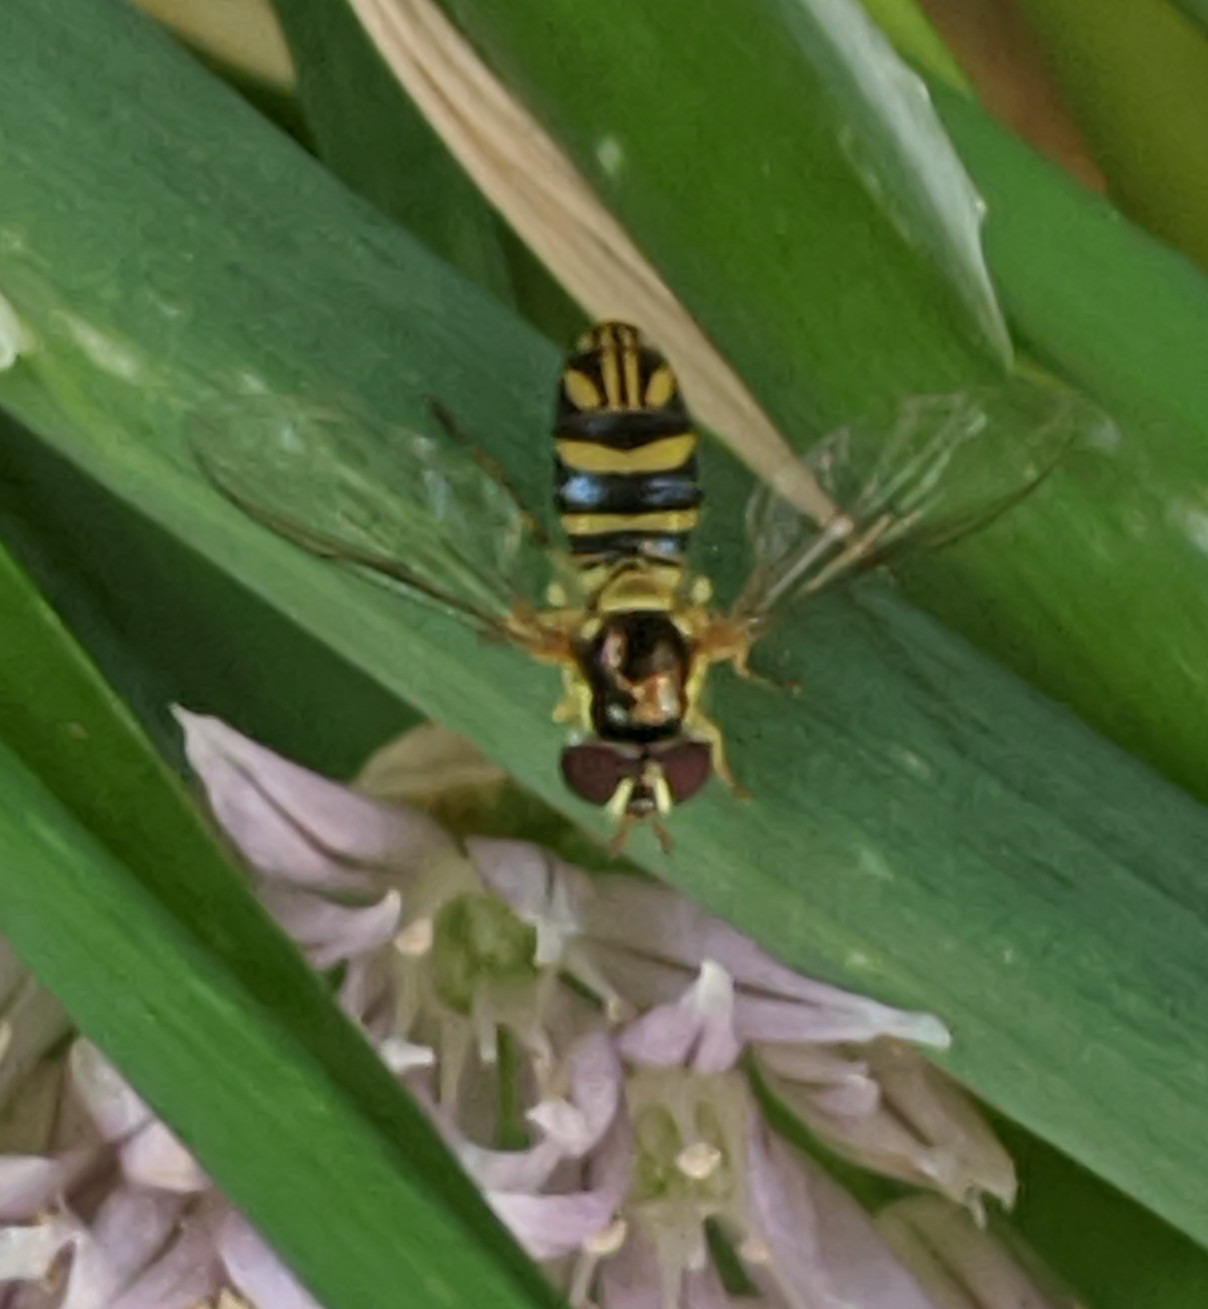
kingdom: Animalia
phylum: Arthropoda
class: Insecta
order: Diptera
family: Syrphidae
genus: Allograpta
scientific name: Allograpta obliqua
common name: Common oblique syrphid
